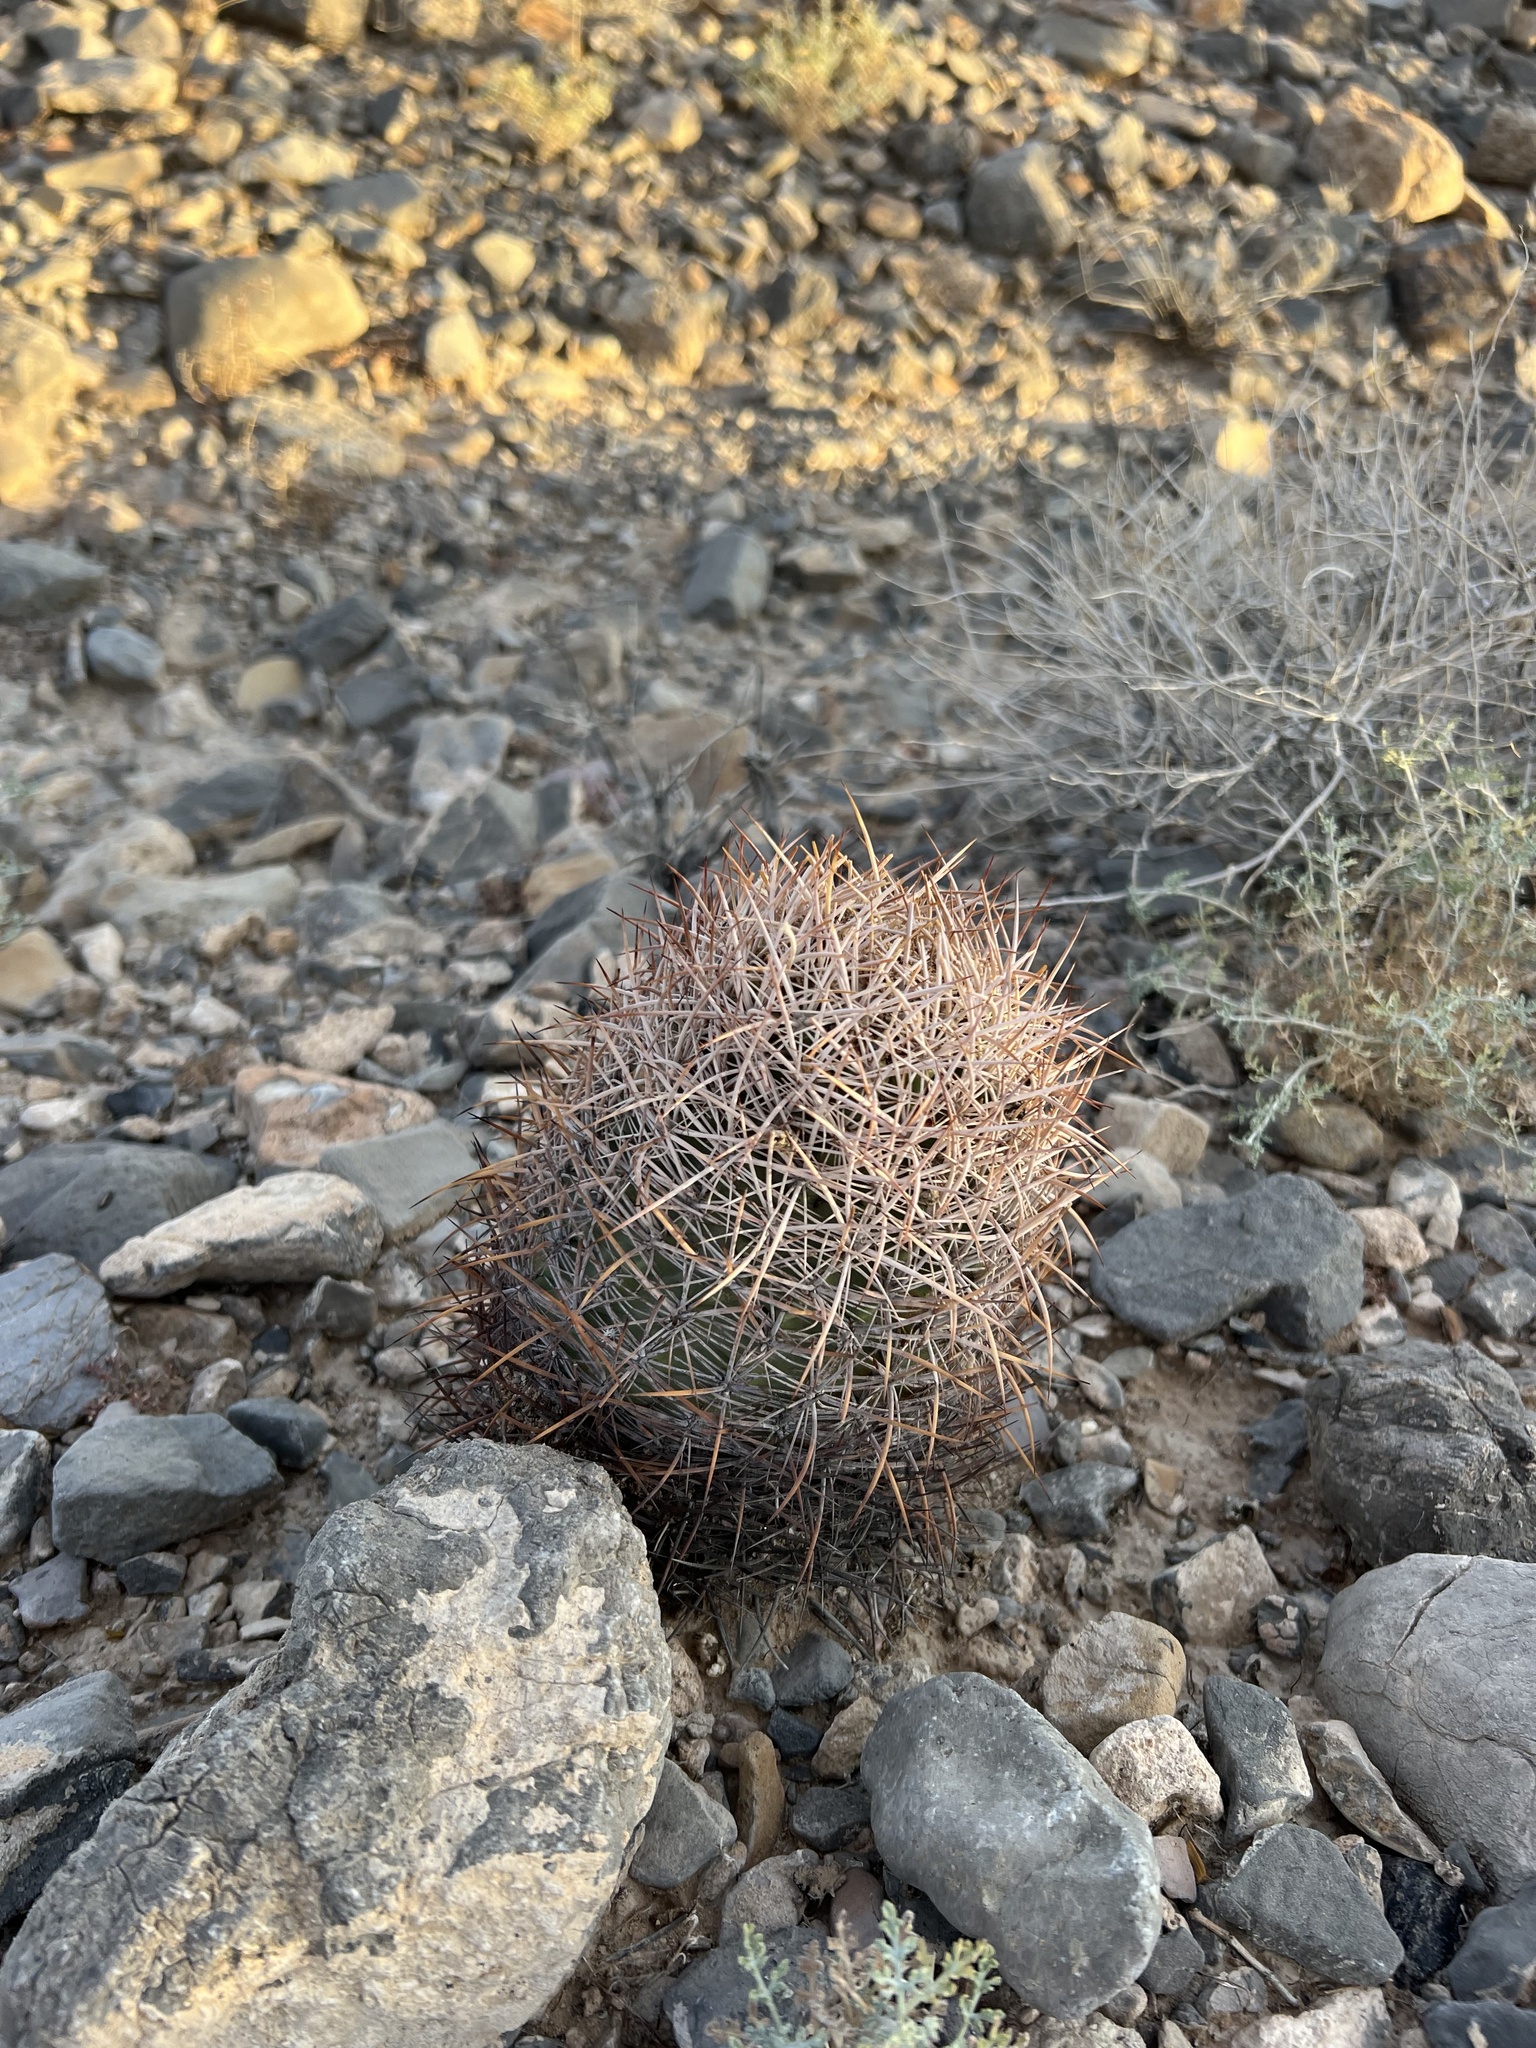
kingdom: Plantae
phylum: Tracheophyta
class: Magnoliopsida
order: Caryophyllales
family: Cactaceae
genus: Sclerocactus
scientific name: Sclerocactus johnsonii
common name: Eight-spine fishhook cactus
